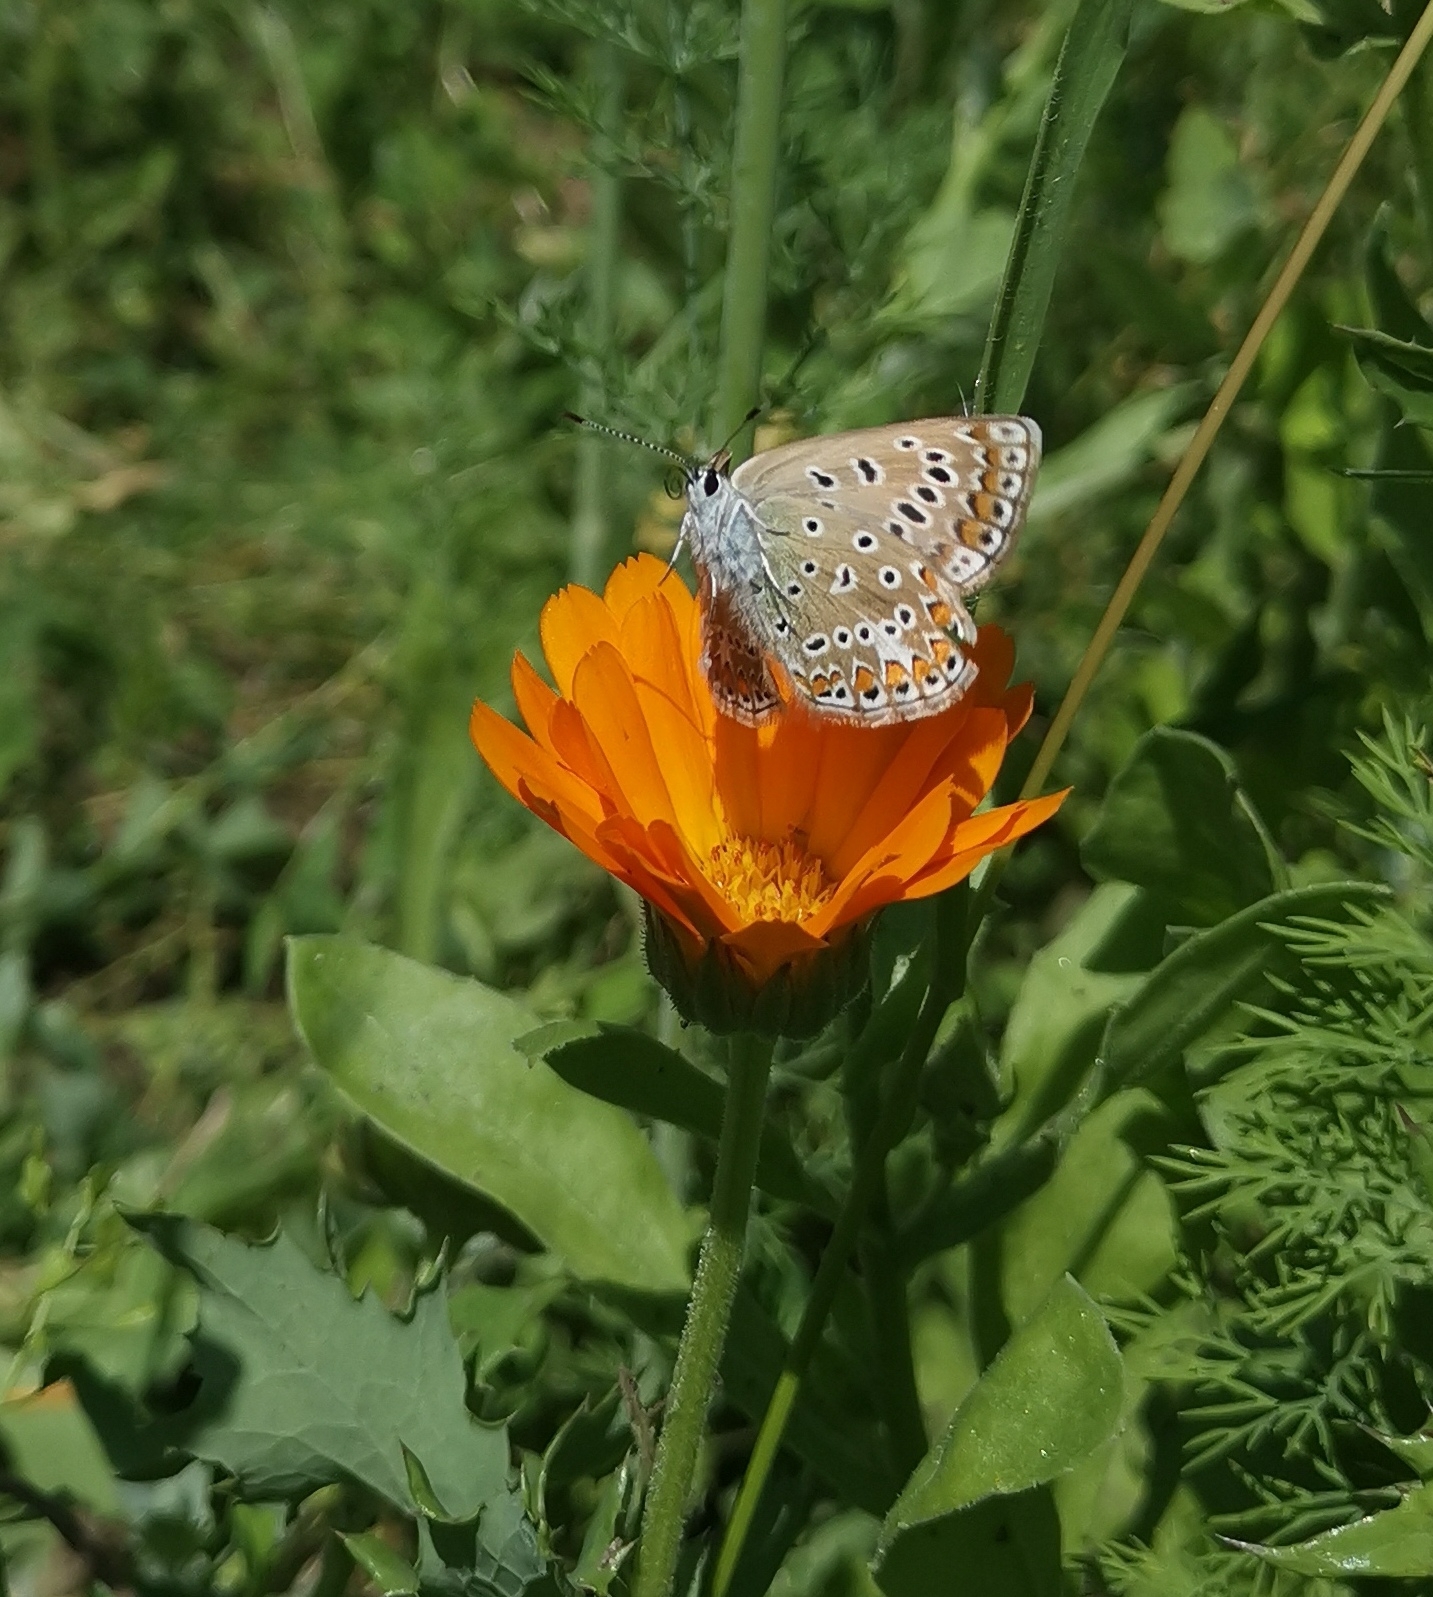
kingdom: Animalia
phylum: Arthropoda
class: Insecta
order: Lepidoptera
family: Lycaenidae
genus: Polyommatus
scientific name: Polyommatus icarus
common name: Common blue
